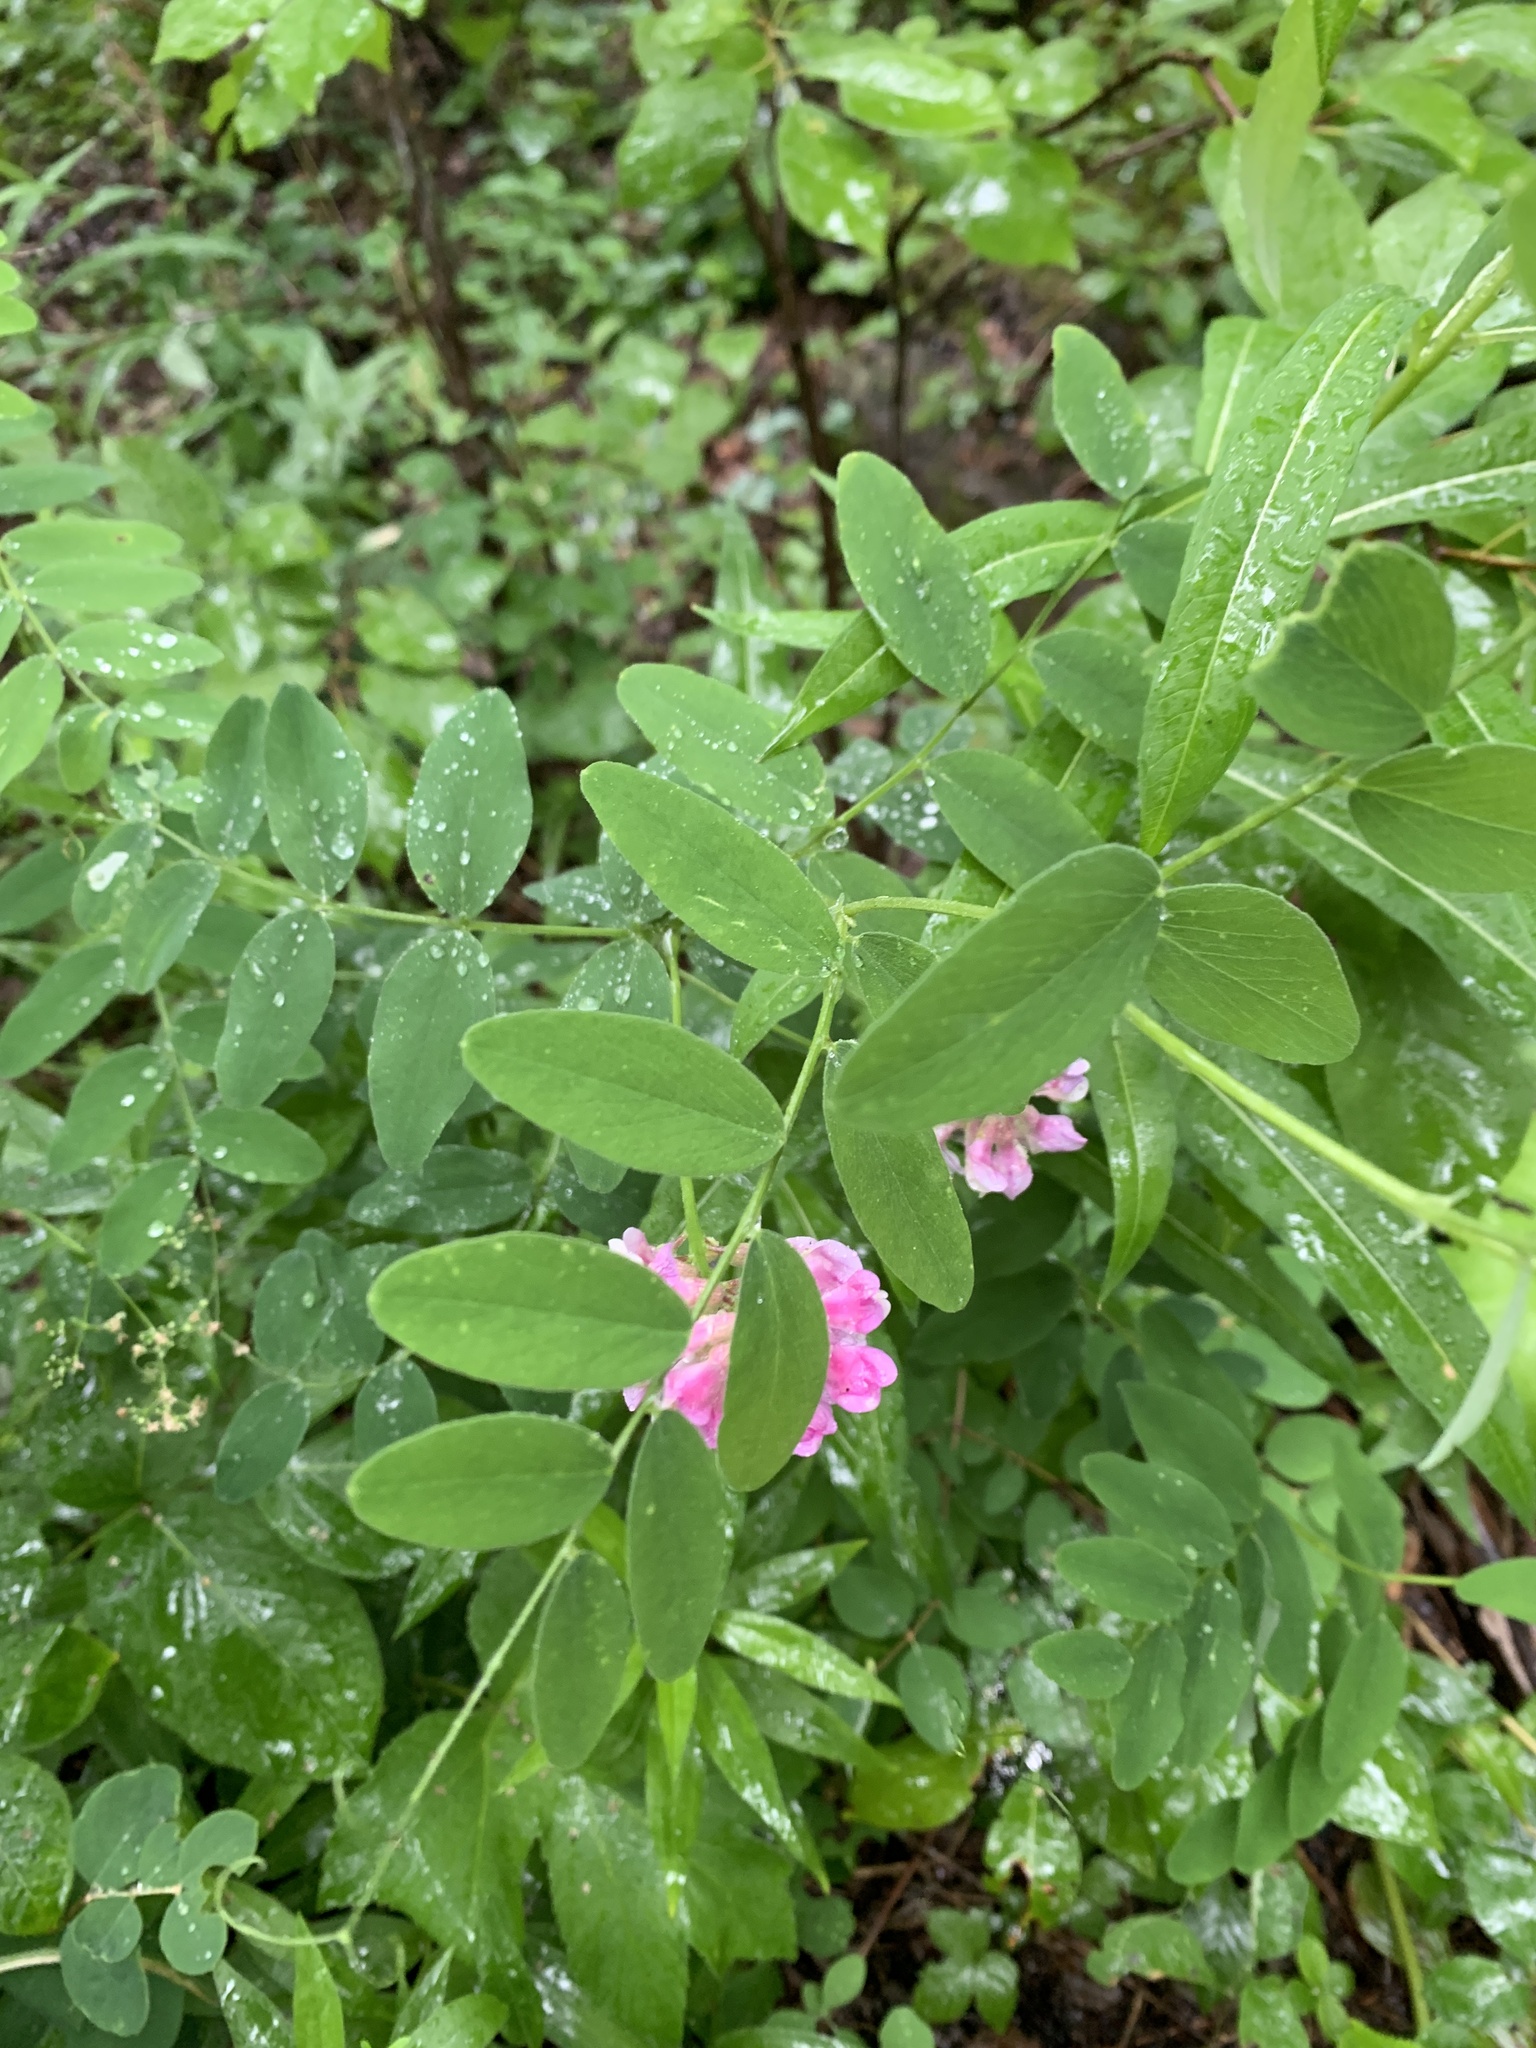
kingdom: Plantae
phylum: Tracheophyta
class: Magnoliopsida
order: Fabales
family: Fabaceae
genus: Lathyrus
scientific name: Lathyrus venosus
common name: Forest-pea
